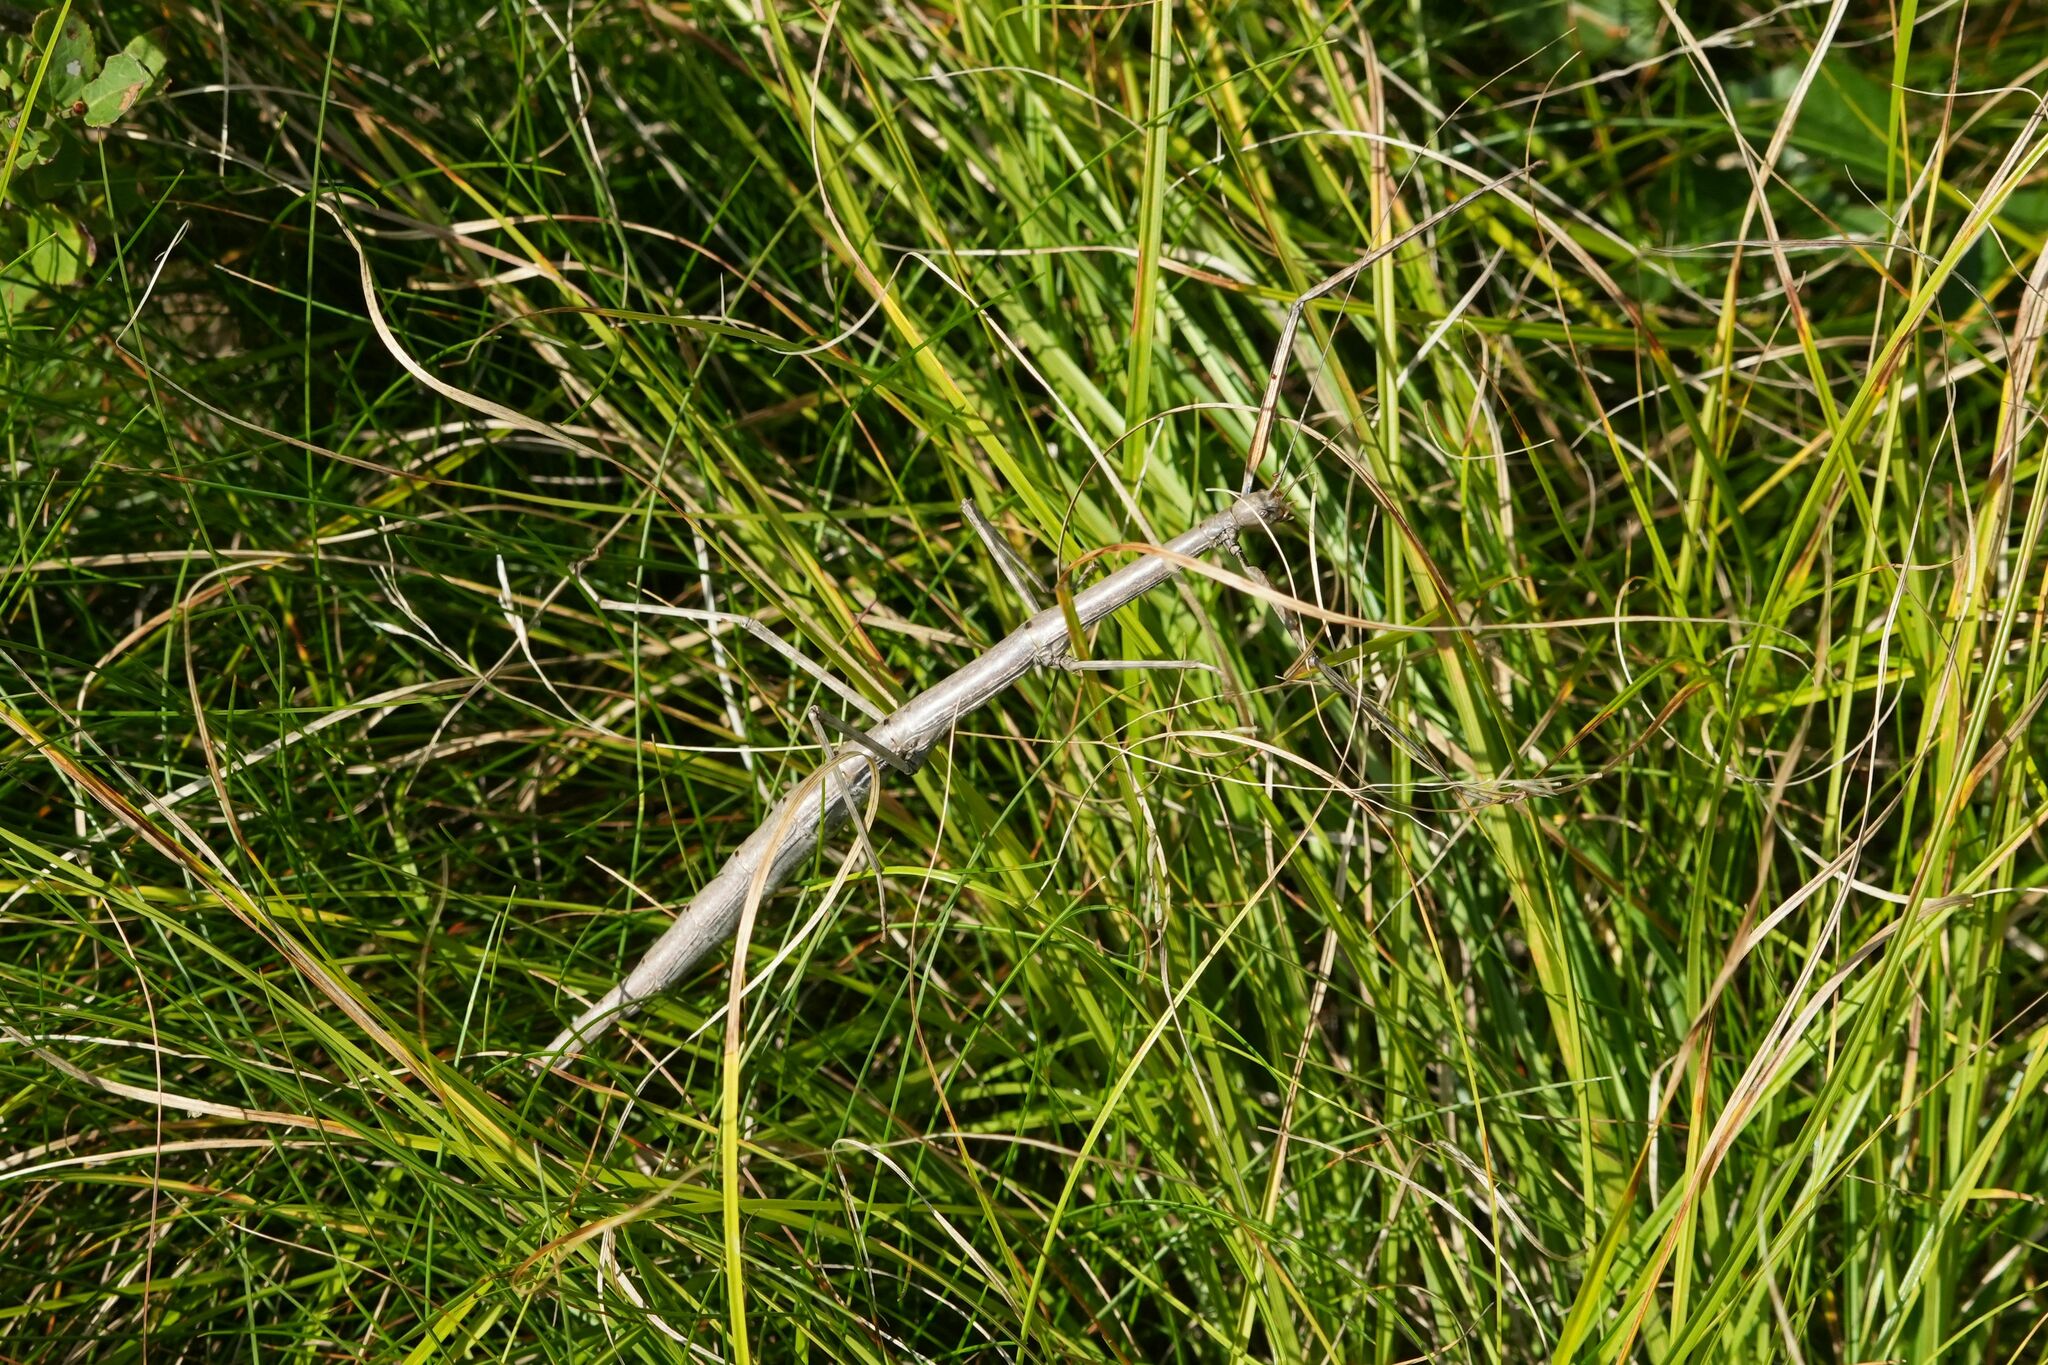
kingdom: Animalia
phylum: Arthropoda
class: Insecta
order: Phasmida
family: Diapheromeridae
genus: Diapheromera
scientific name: Diapheromera femorata
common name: Common american walkingstick
